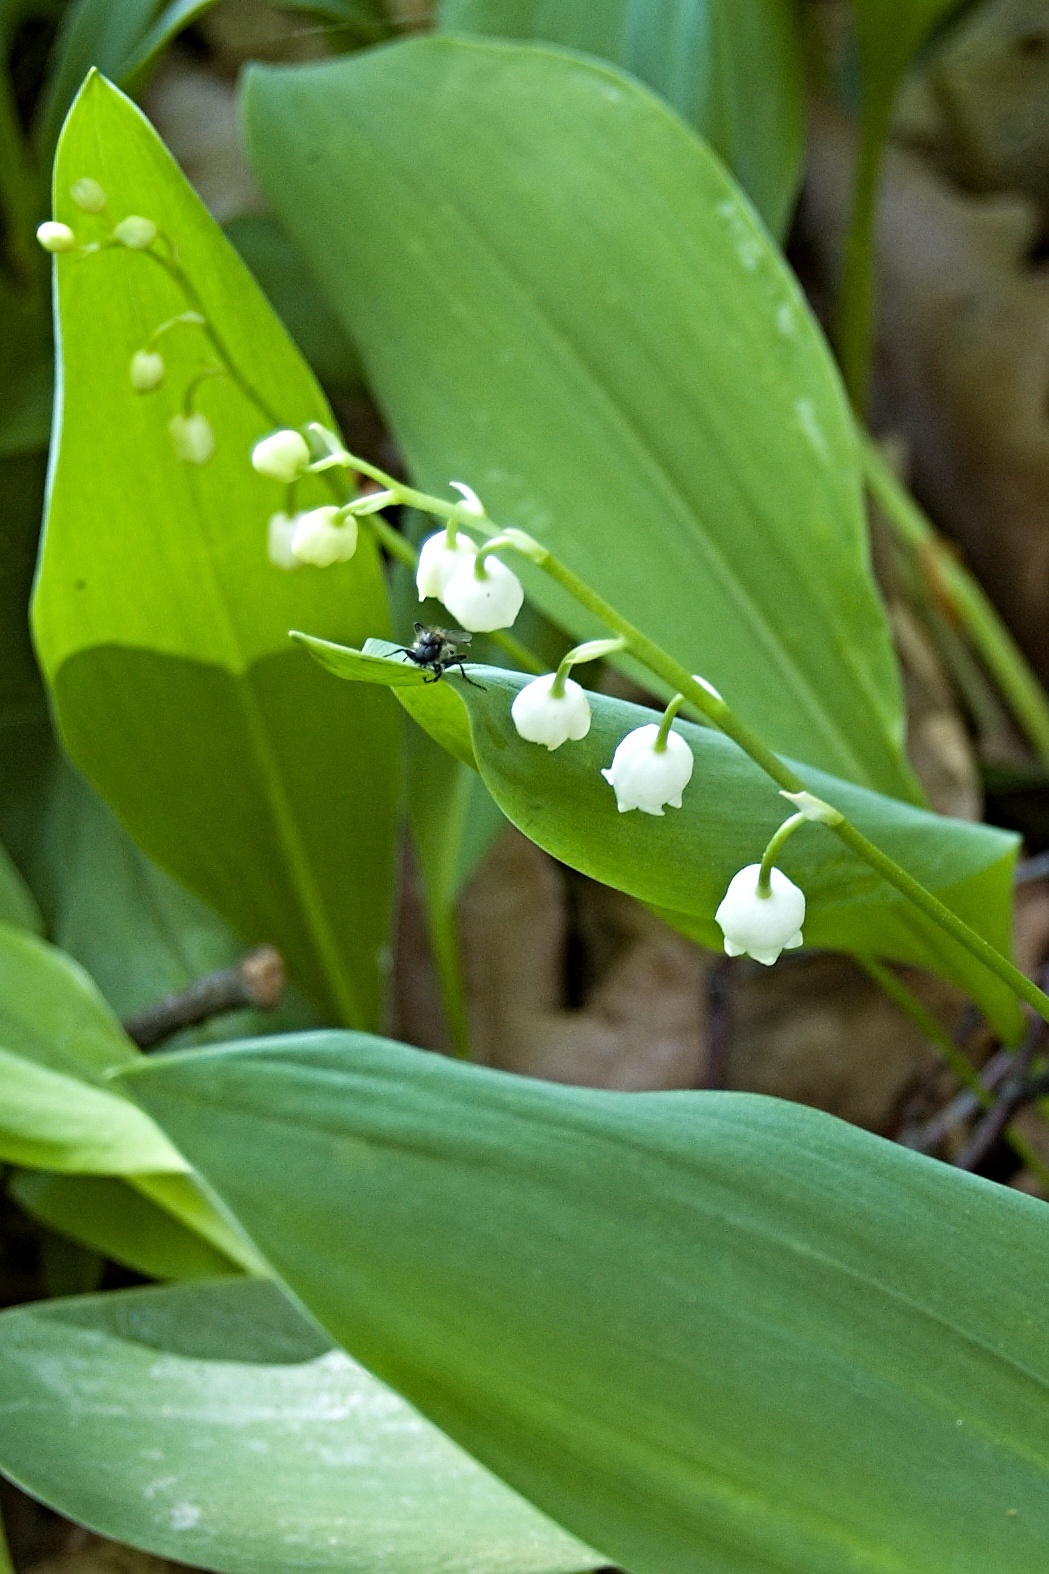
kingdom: Plantae
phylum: Tracheophyta
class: Liliopsida
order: Asparagales
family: Asparagaceae
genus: Convallaria
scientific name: Convallaria majalis
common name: Lily-of-the-valley
